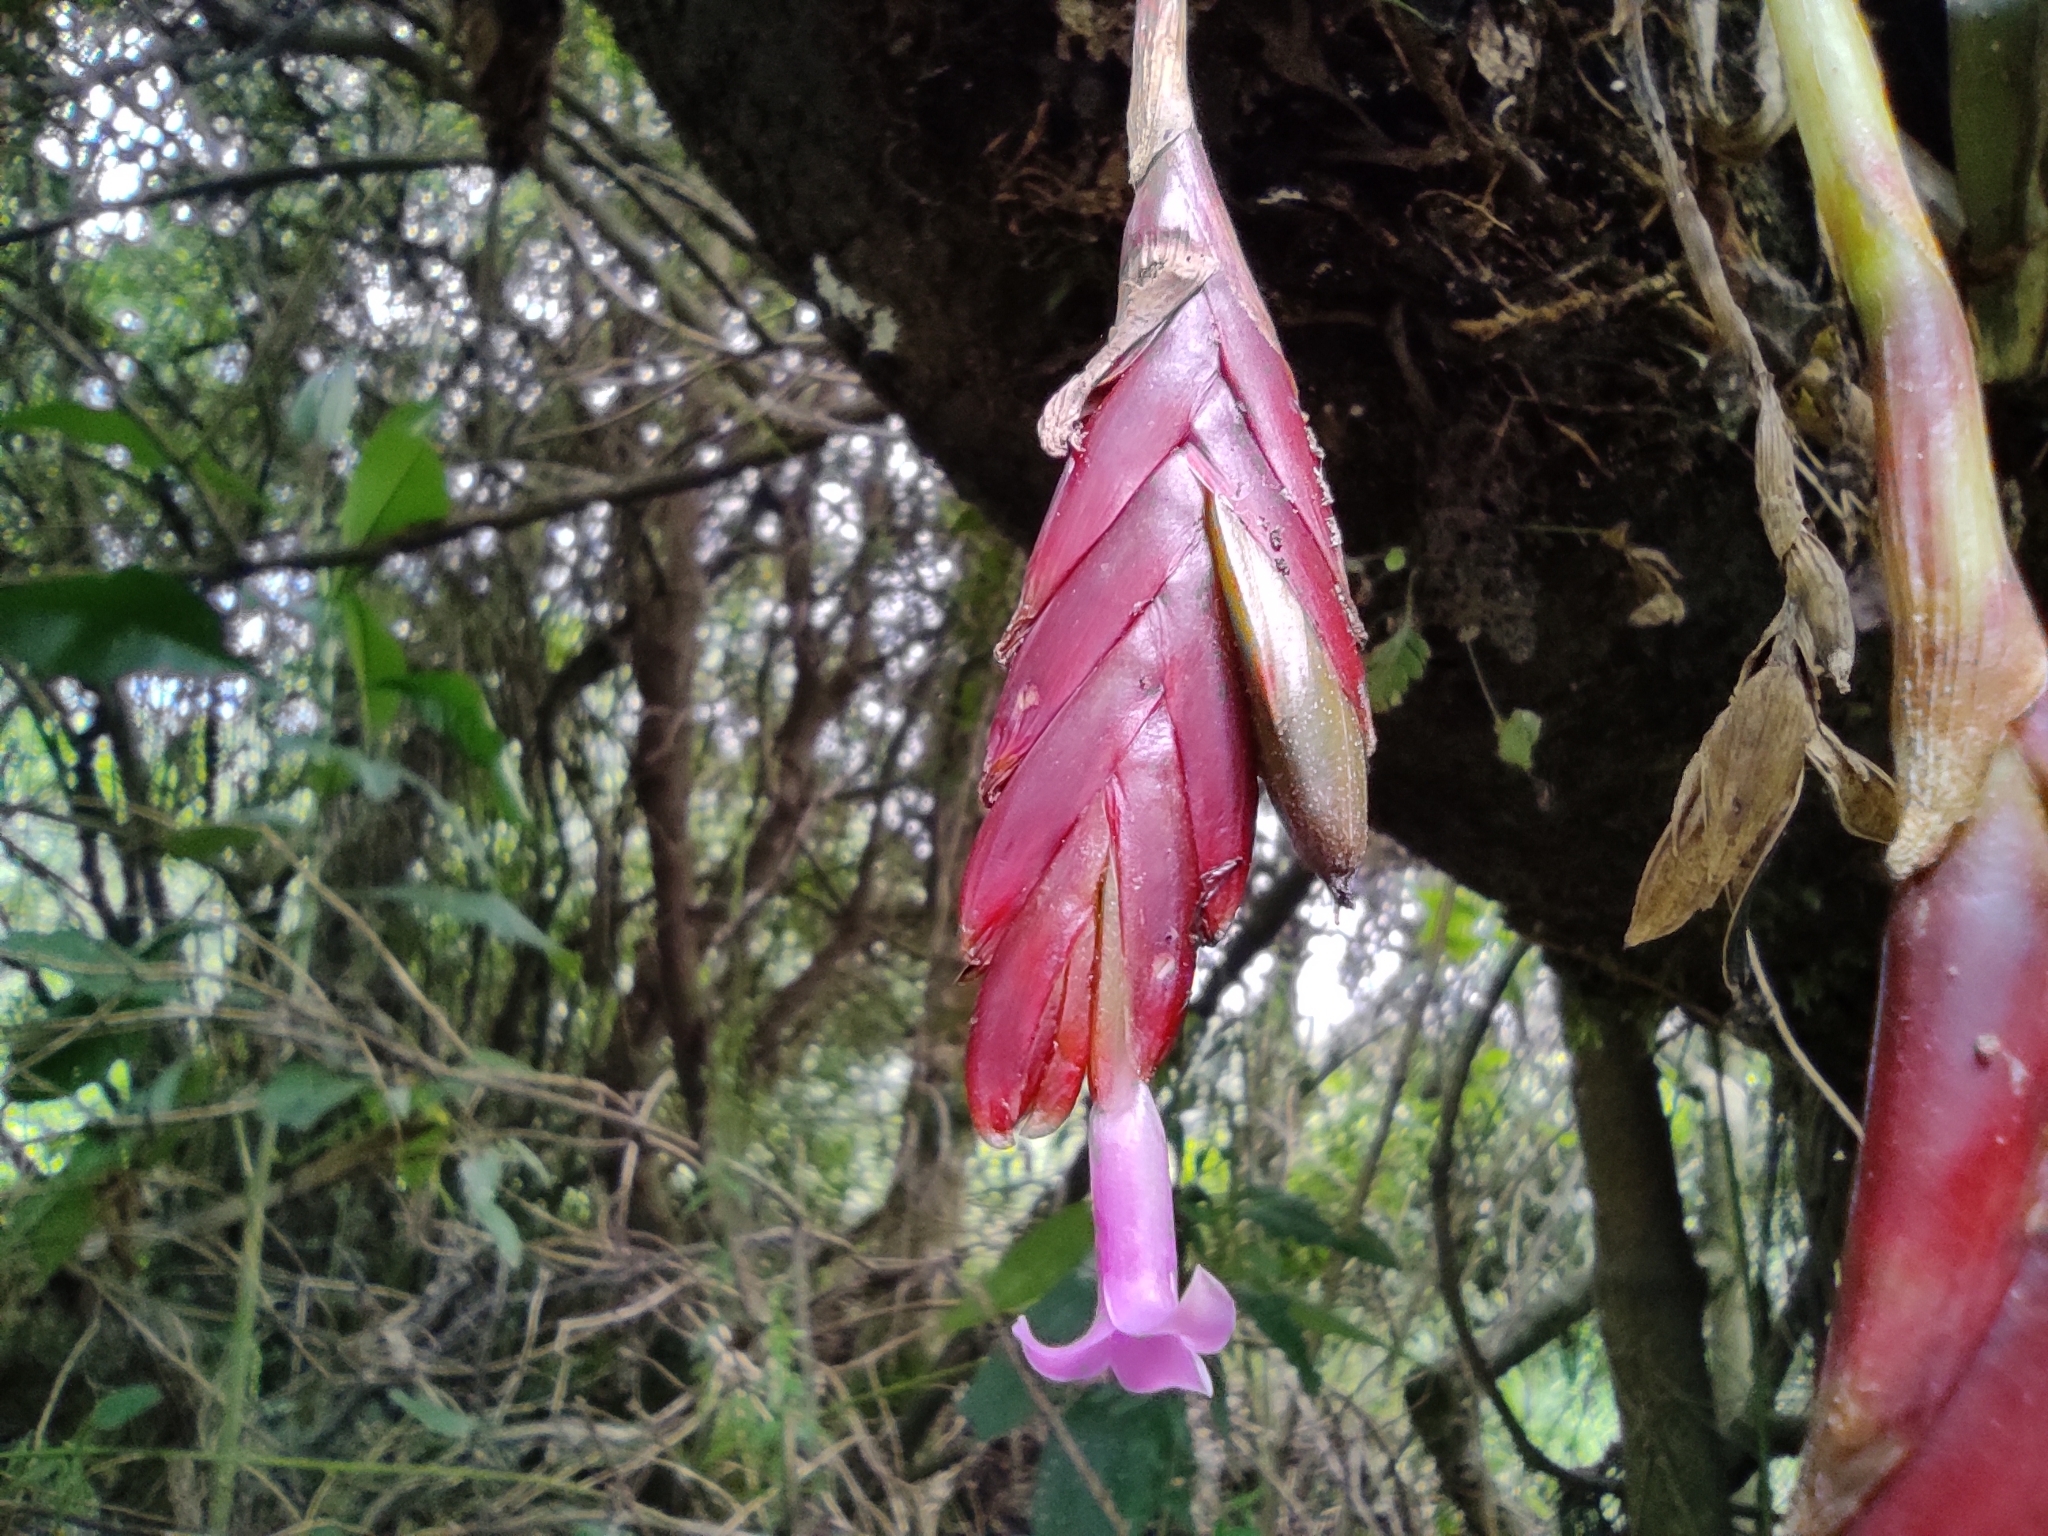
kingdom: Plantae
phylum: Tracheophyta
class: Liliopsida
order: Poales
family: Bromeliaceae
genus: Tillandsia
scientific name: Tillandsia complanata
